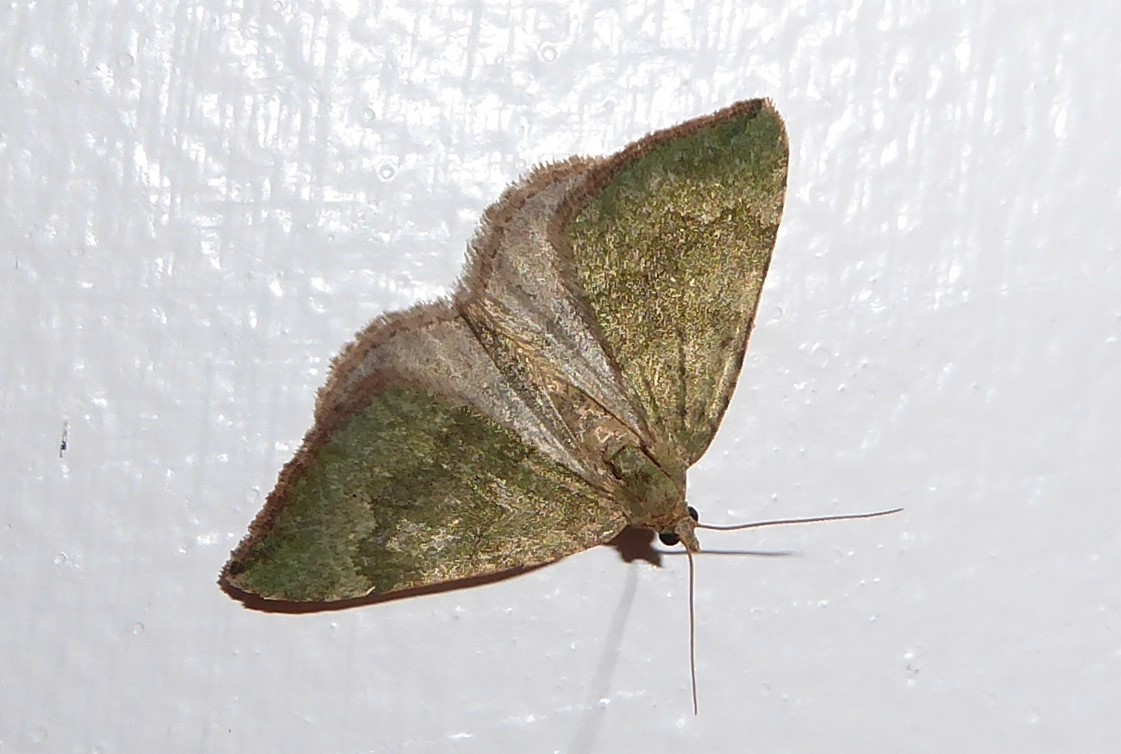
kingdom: Animalia
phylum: Arthropoda
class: Insecta
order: Lepidoptera
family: Geometridae
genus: Epyaxa
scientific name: Epyaxa rosearia
